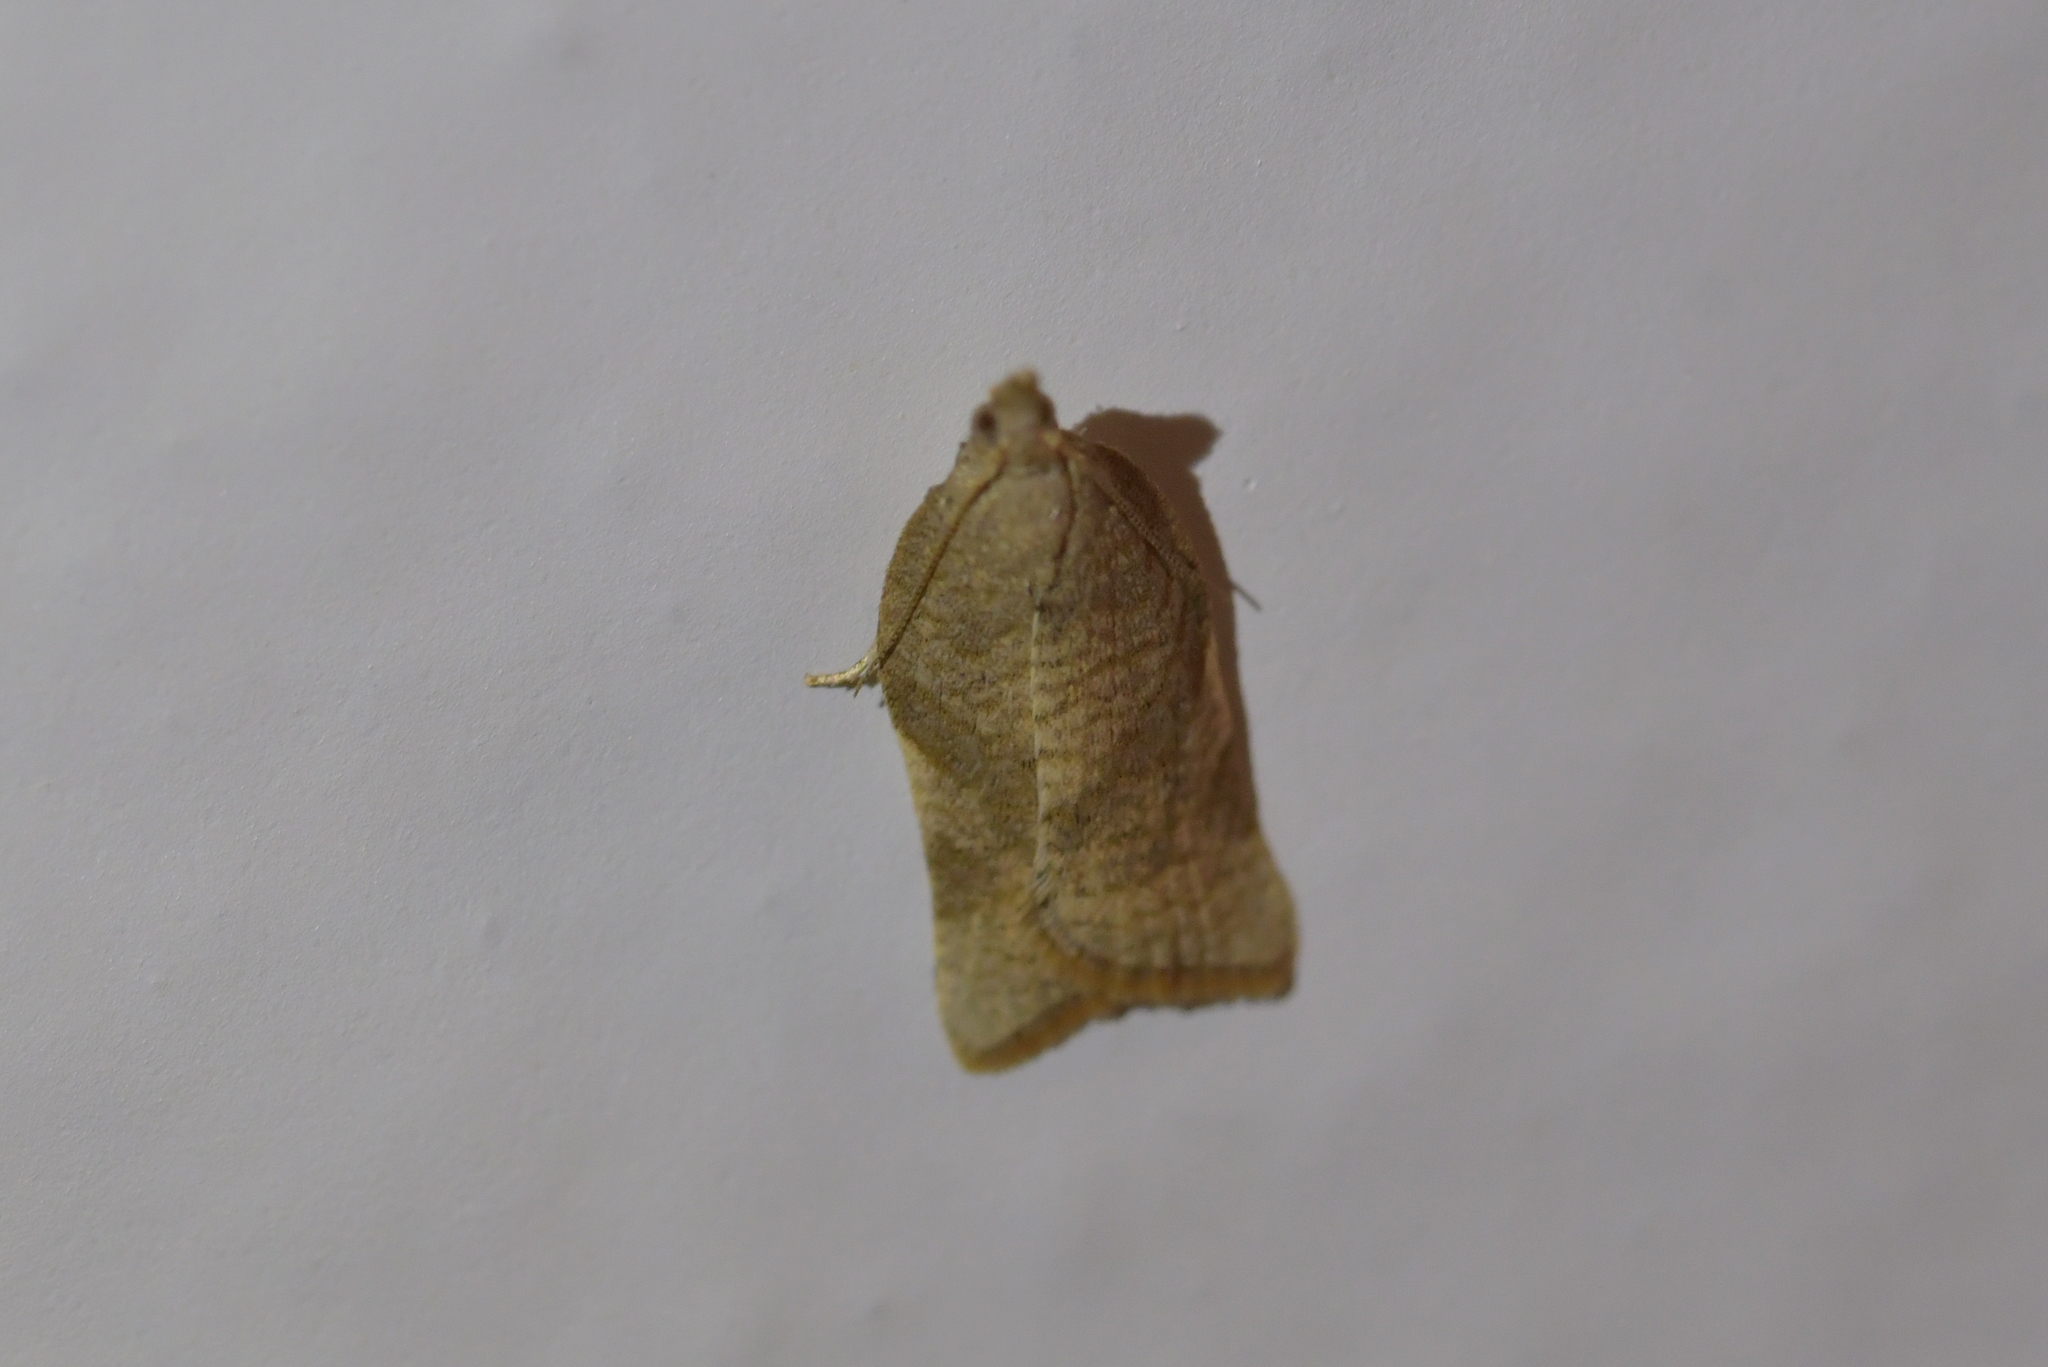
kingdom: Animalia
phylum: Arthropoda
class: Insecta
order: Lepidoptera
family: Tortricidae
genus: Catamacta
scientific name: Catamacta gavisana
